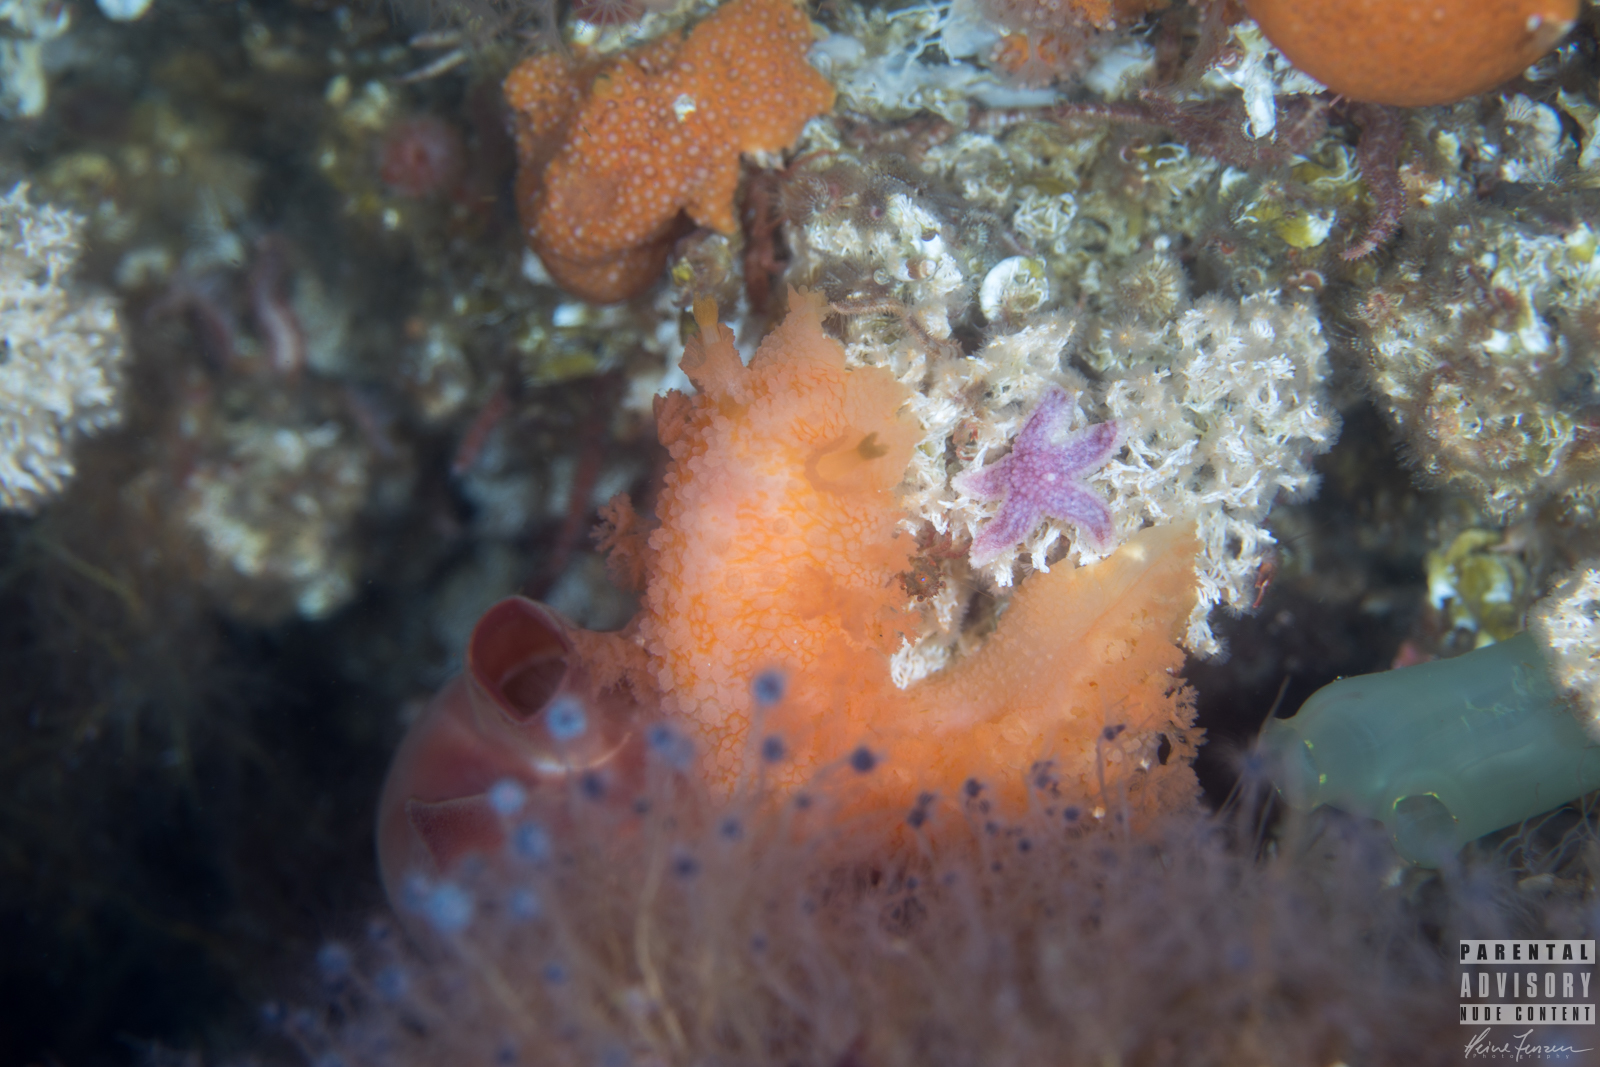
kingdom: Animalia
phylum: Mollusca
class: Gastropoda
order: Nudibranchia
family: Tritoniidae
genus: Tritonia
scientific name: Tritonia hombergii
